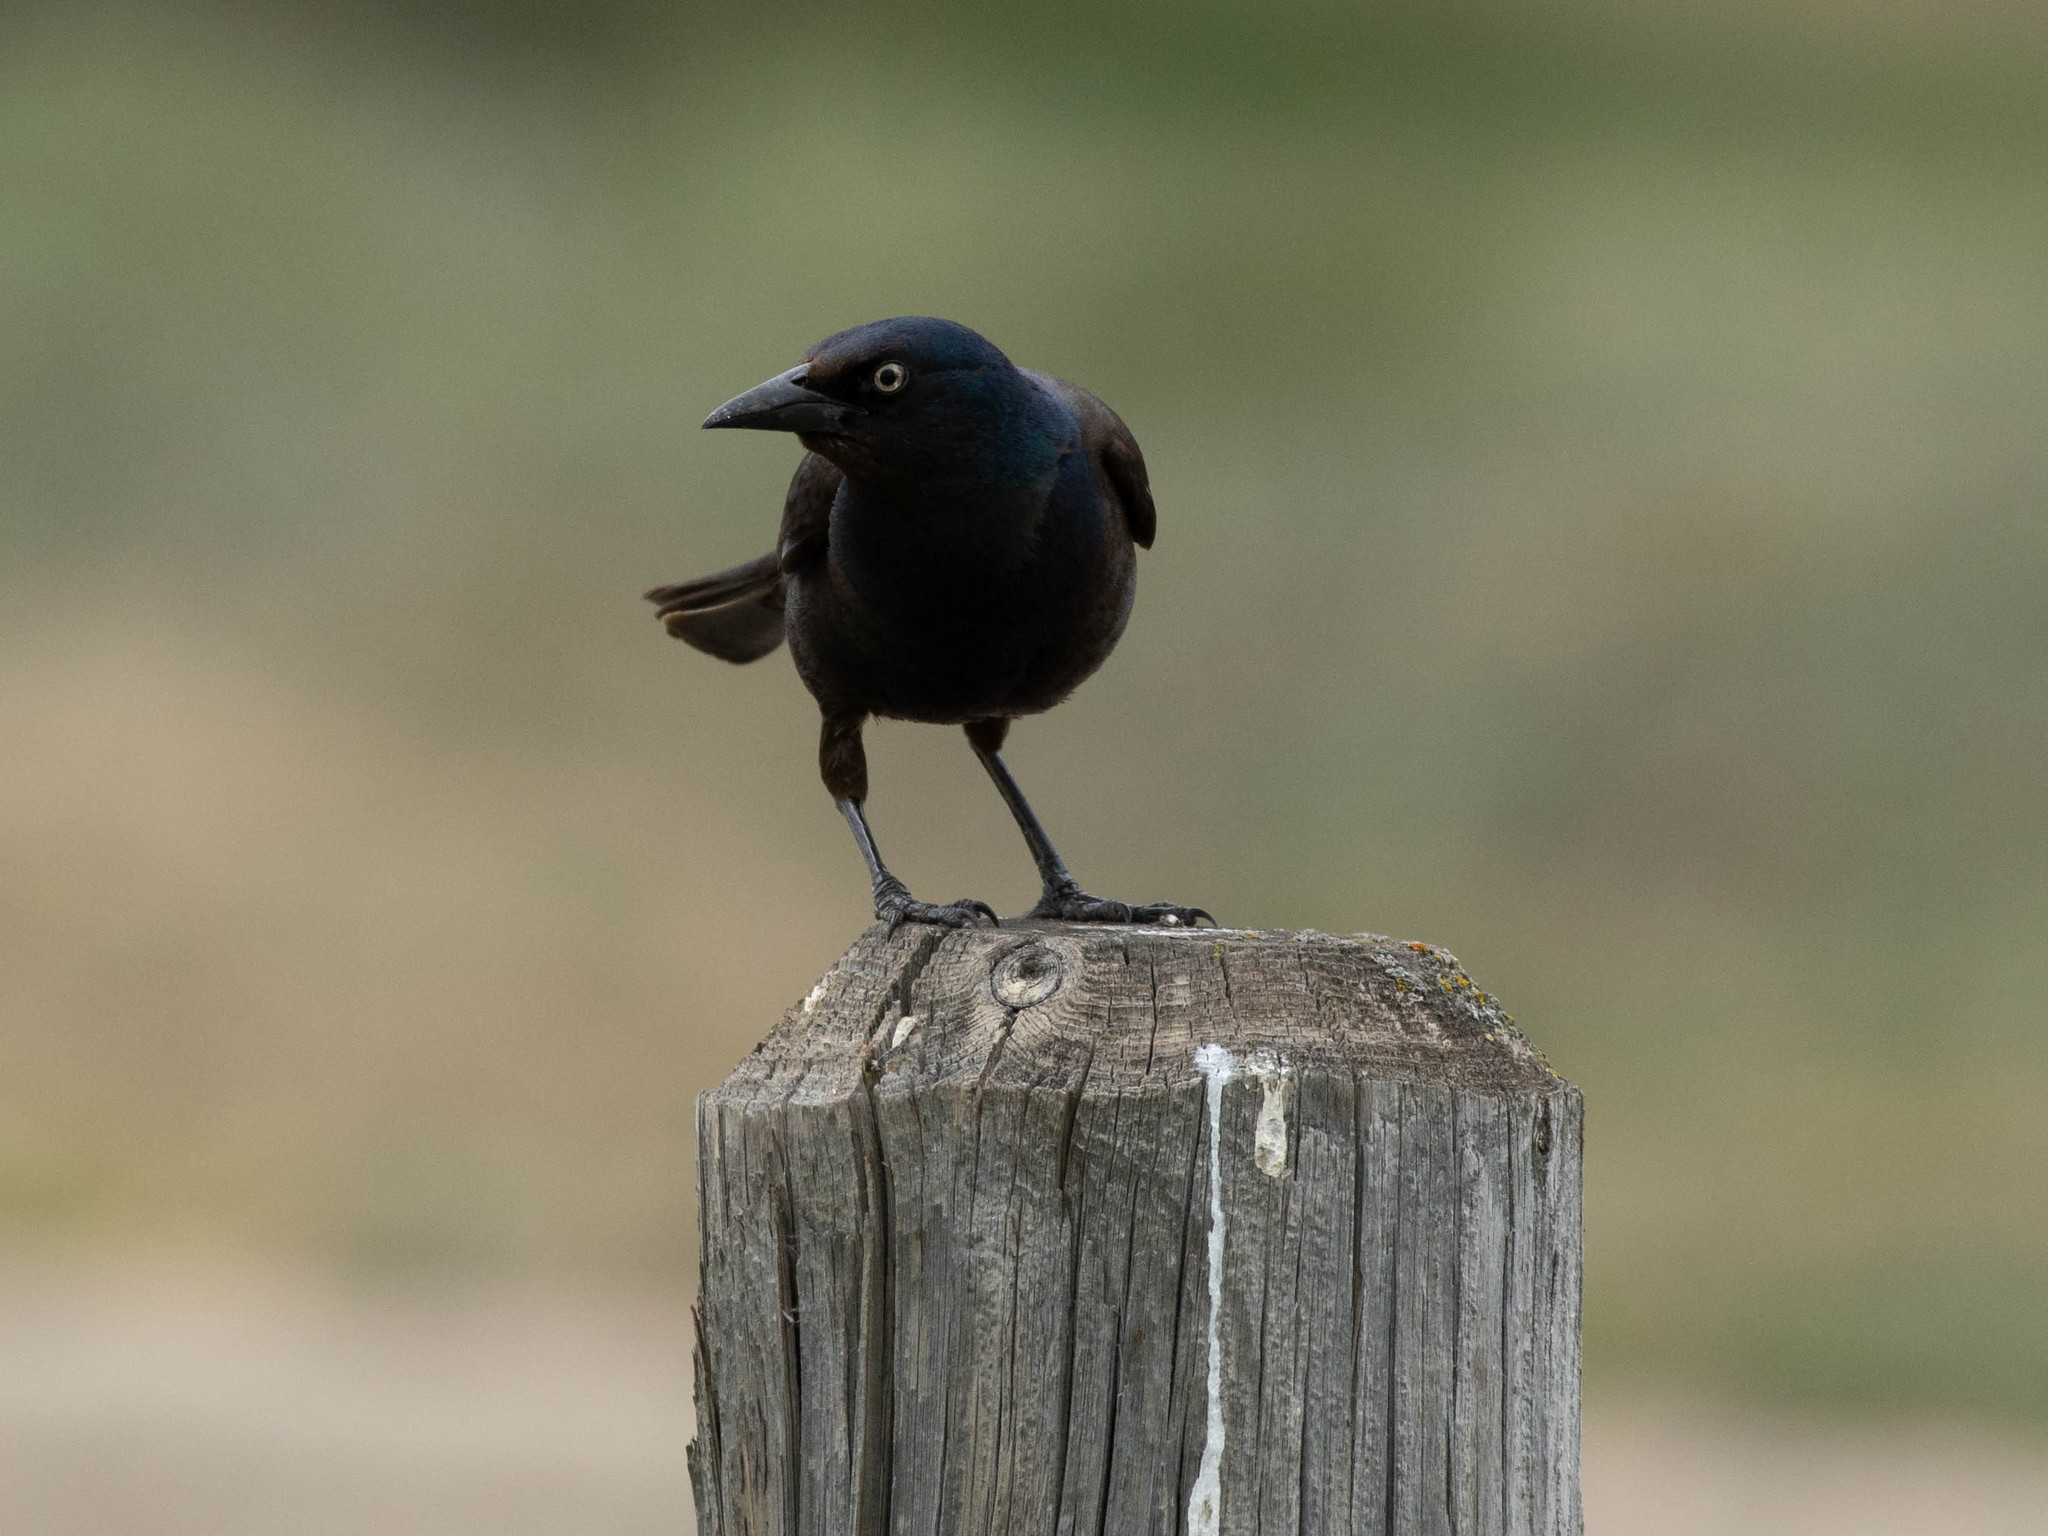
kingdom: Animalia
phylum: Chordata
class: Aves
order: Passeriformes
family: Icteridae
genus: Quiscalus
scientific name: Quiscalus quiscula
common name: Common grackle
